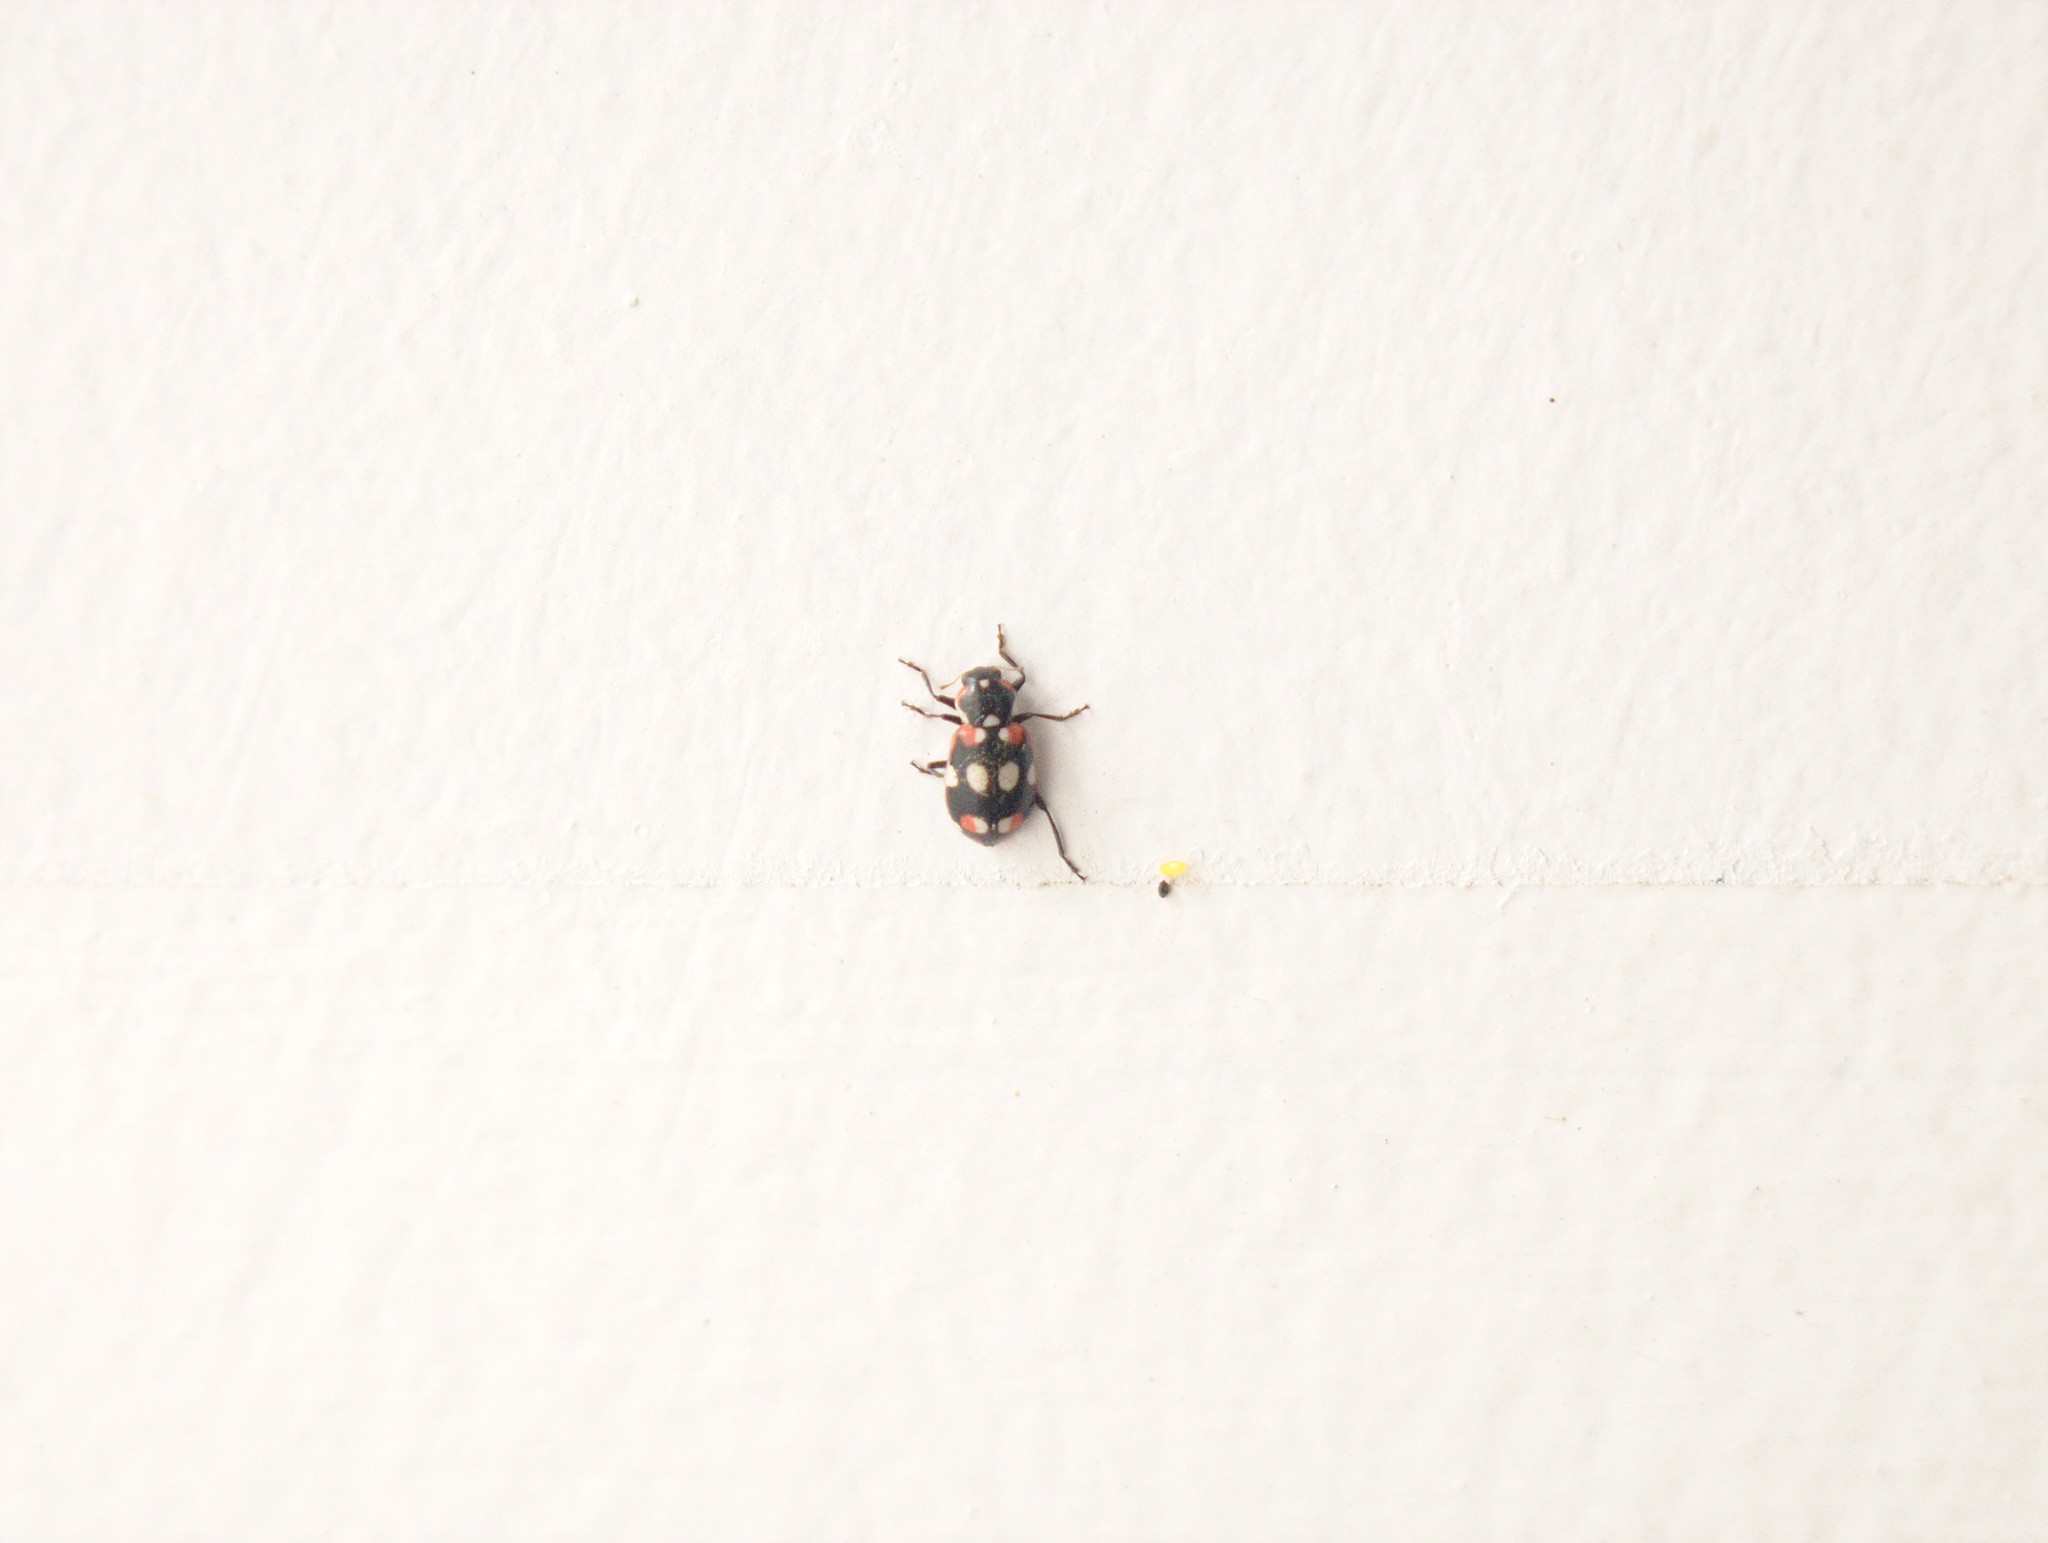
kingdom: Animalia
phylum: Arthropoda
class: Insecta
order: Coleoptera
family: Coccinellidae
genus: Eriopis
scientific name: Eriopis connexa
